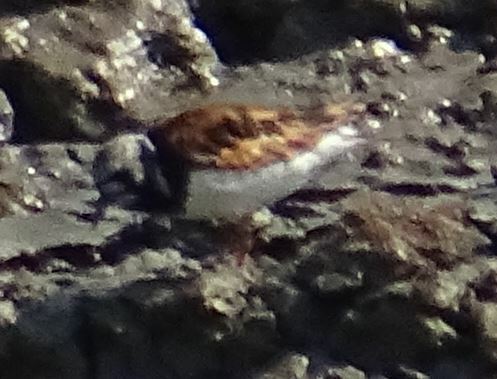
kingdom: Animalia
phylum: Chordata
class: Aves
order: Charadriiformes
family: Scolopacidae
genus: Arenaria
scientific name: Arenaria interpres
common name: Ruddy turnstone
